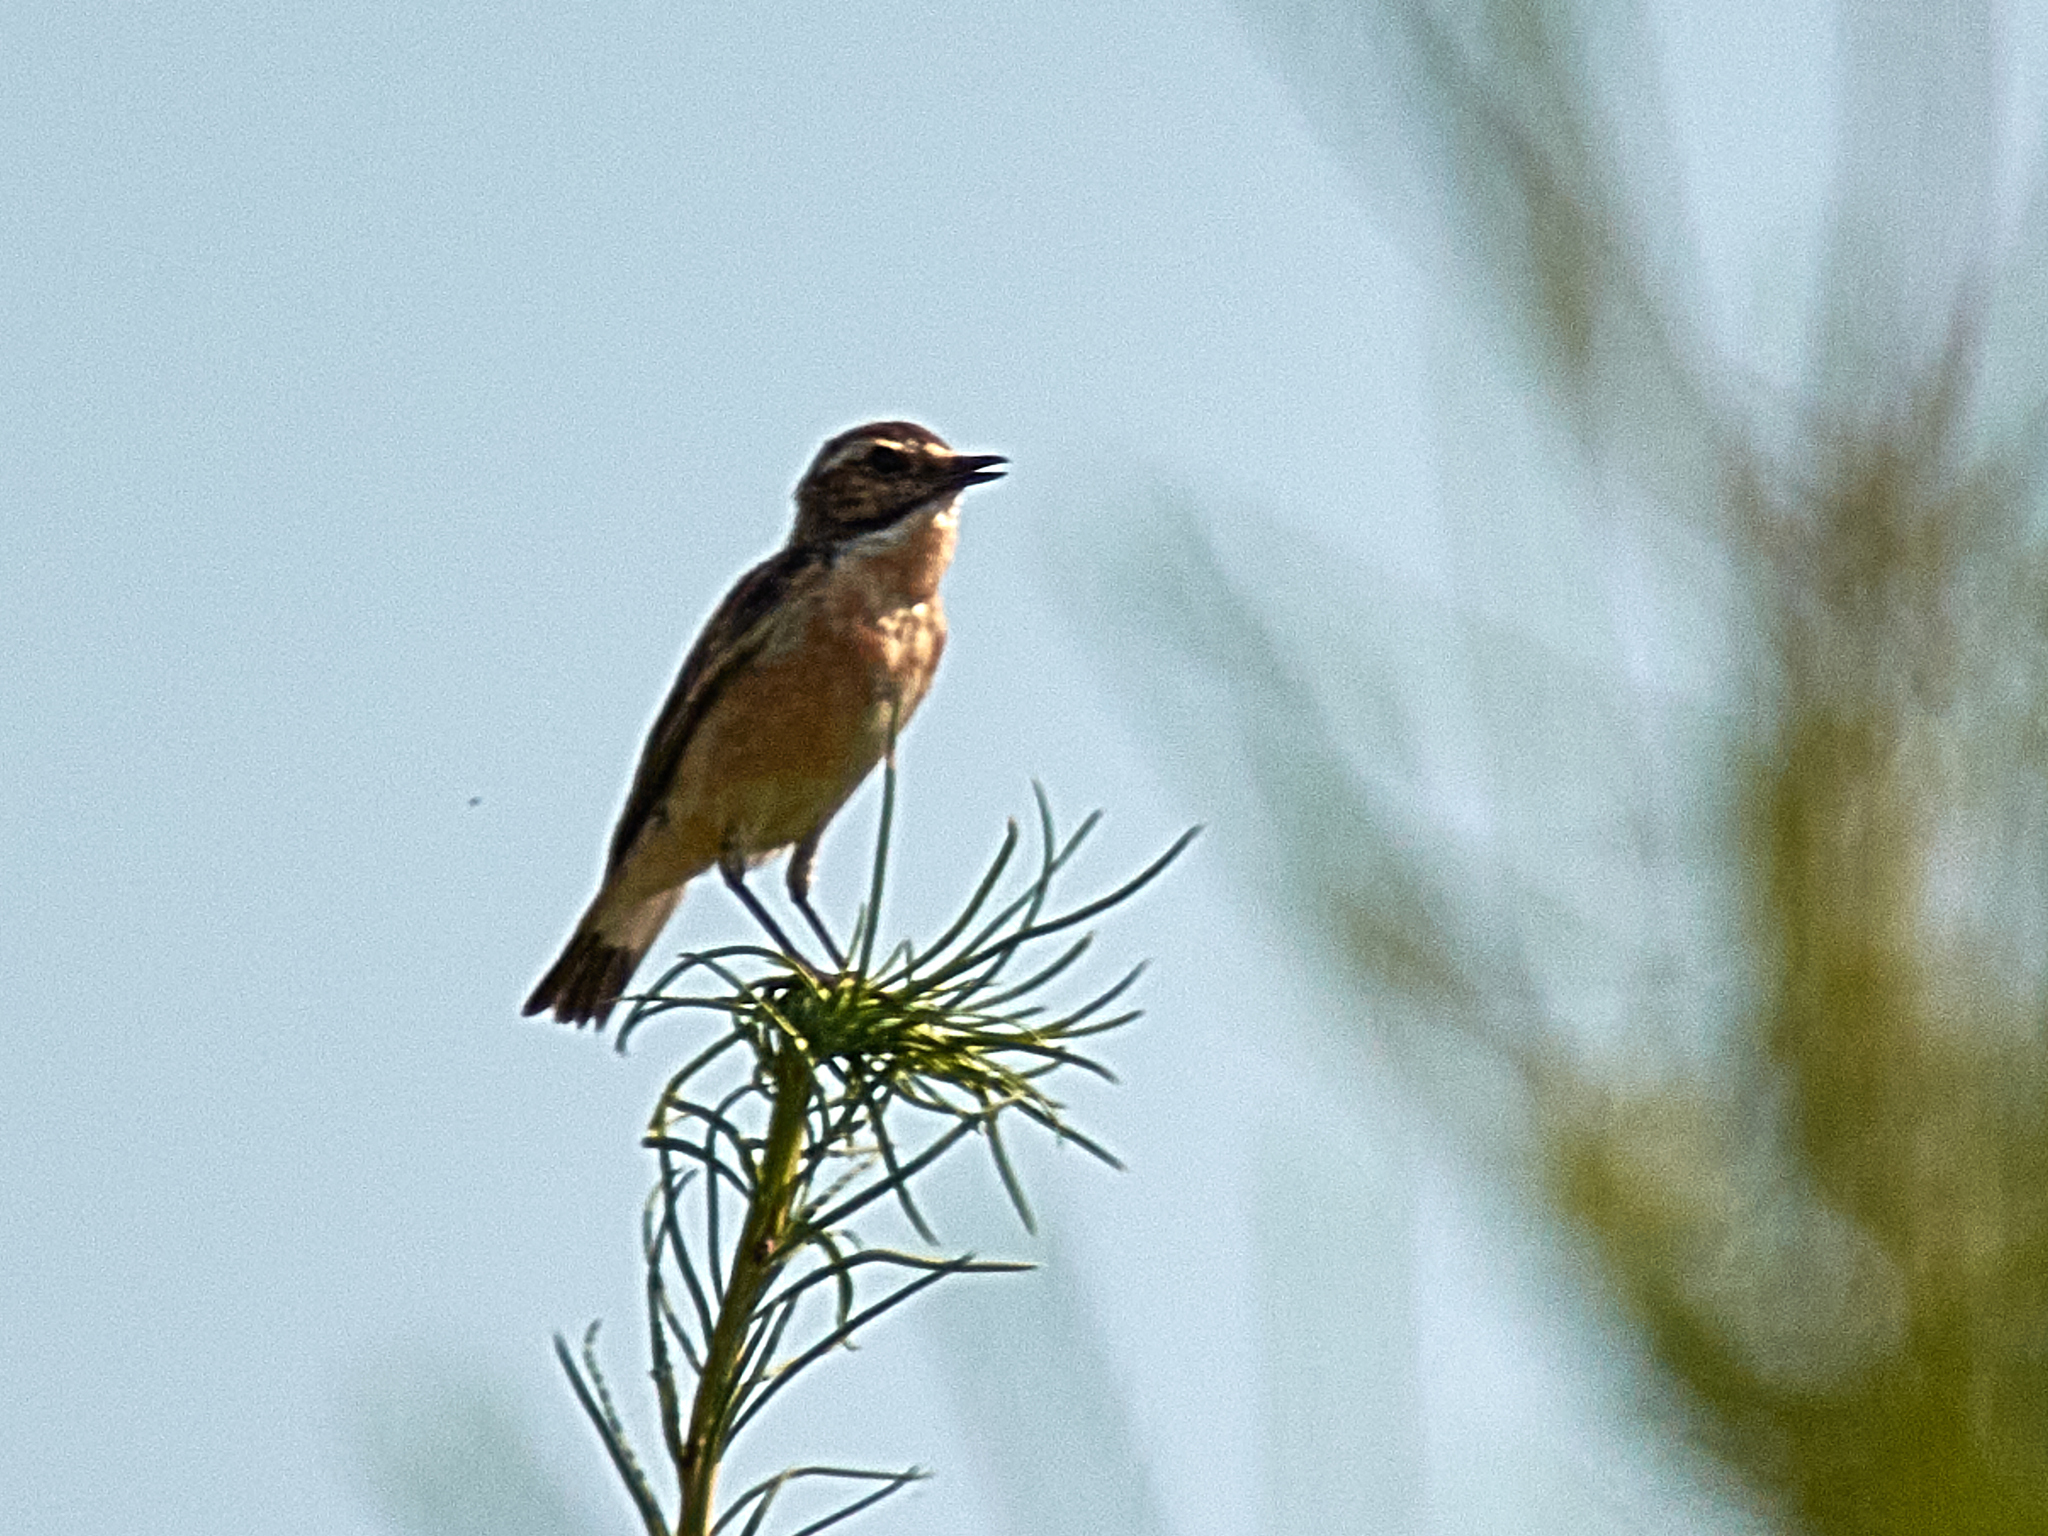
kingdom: Animalia
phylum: Chordata
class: Aves
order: Passeriformes
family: Muscicapidae
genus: Saxicola
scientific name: Saxicola rubetra
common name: Whinchat
